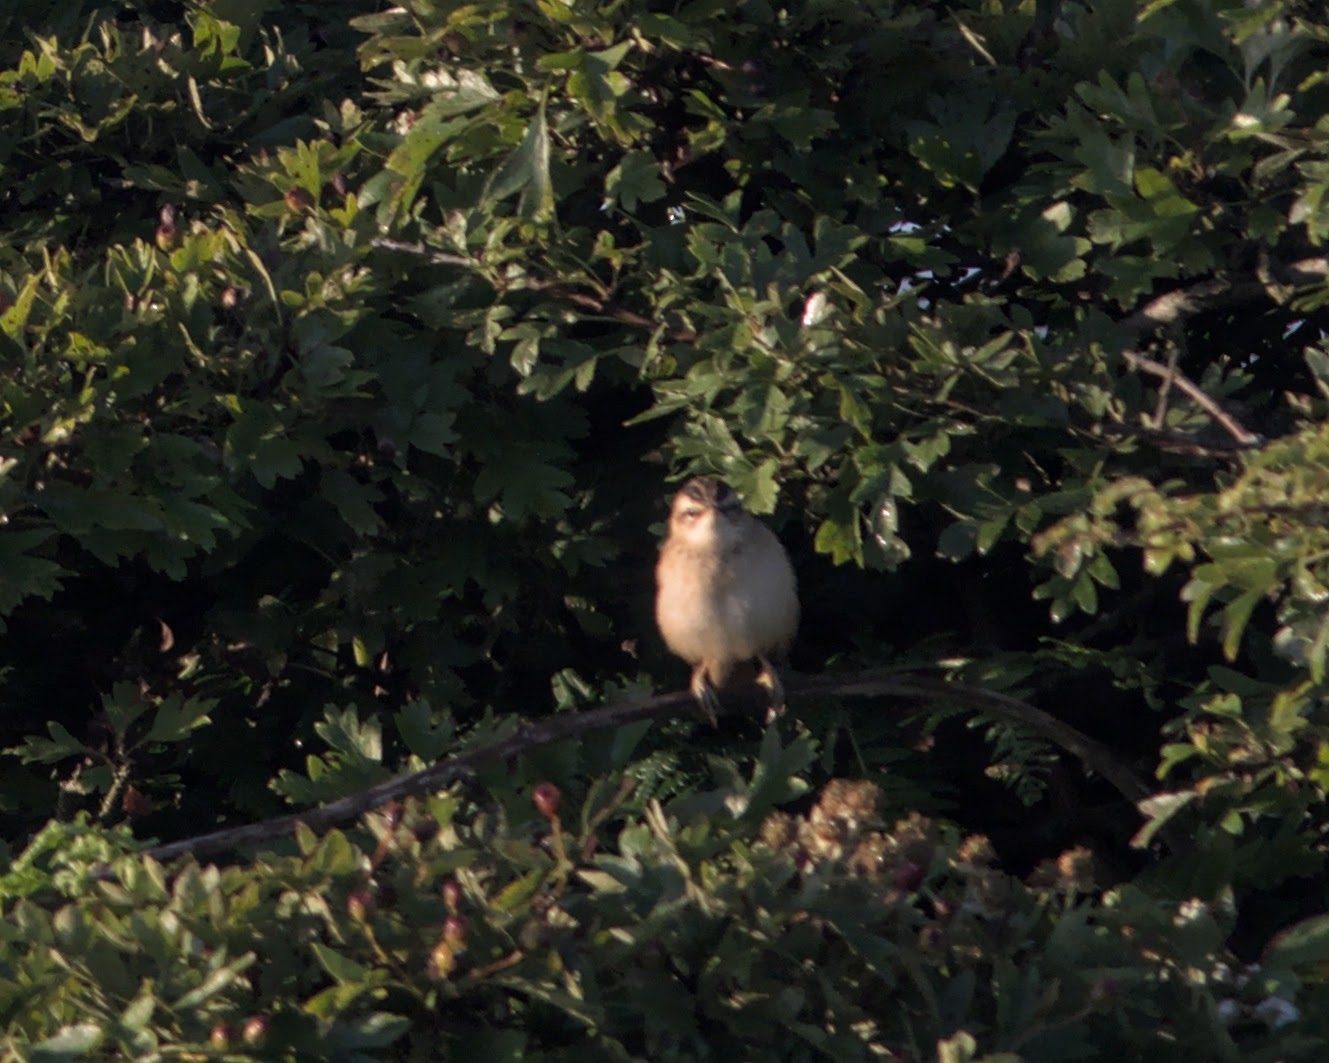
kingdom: Animalia
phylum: Chordata
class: Aves
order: Passeriformes
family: Acrocephalidae
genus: Acrocephalus
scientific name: Acrocephalus schoenobaenus
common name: Sedge warbler
